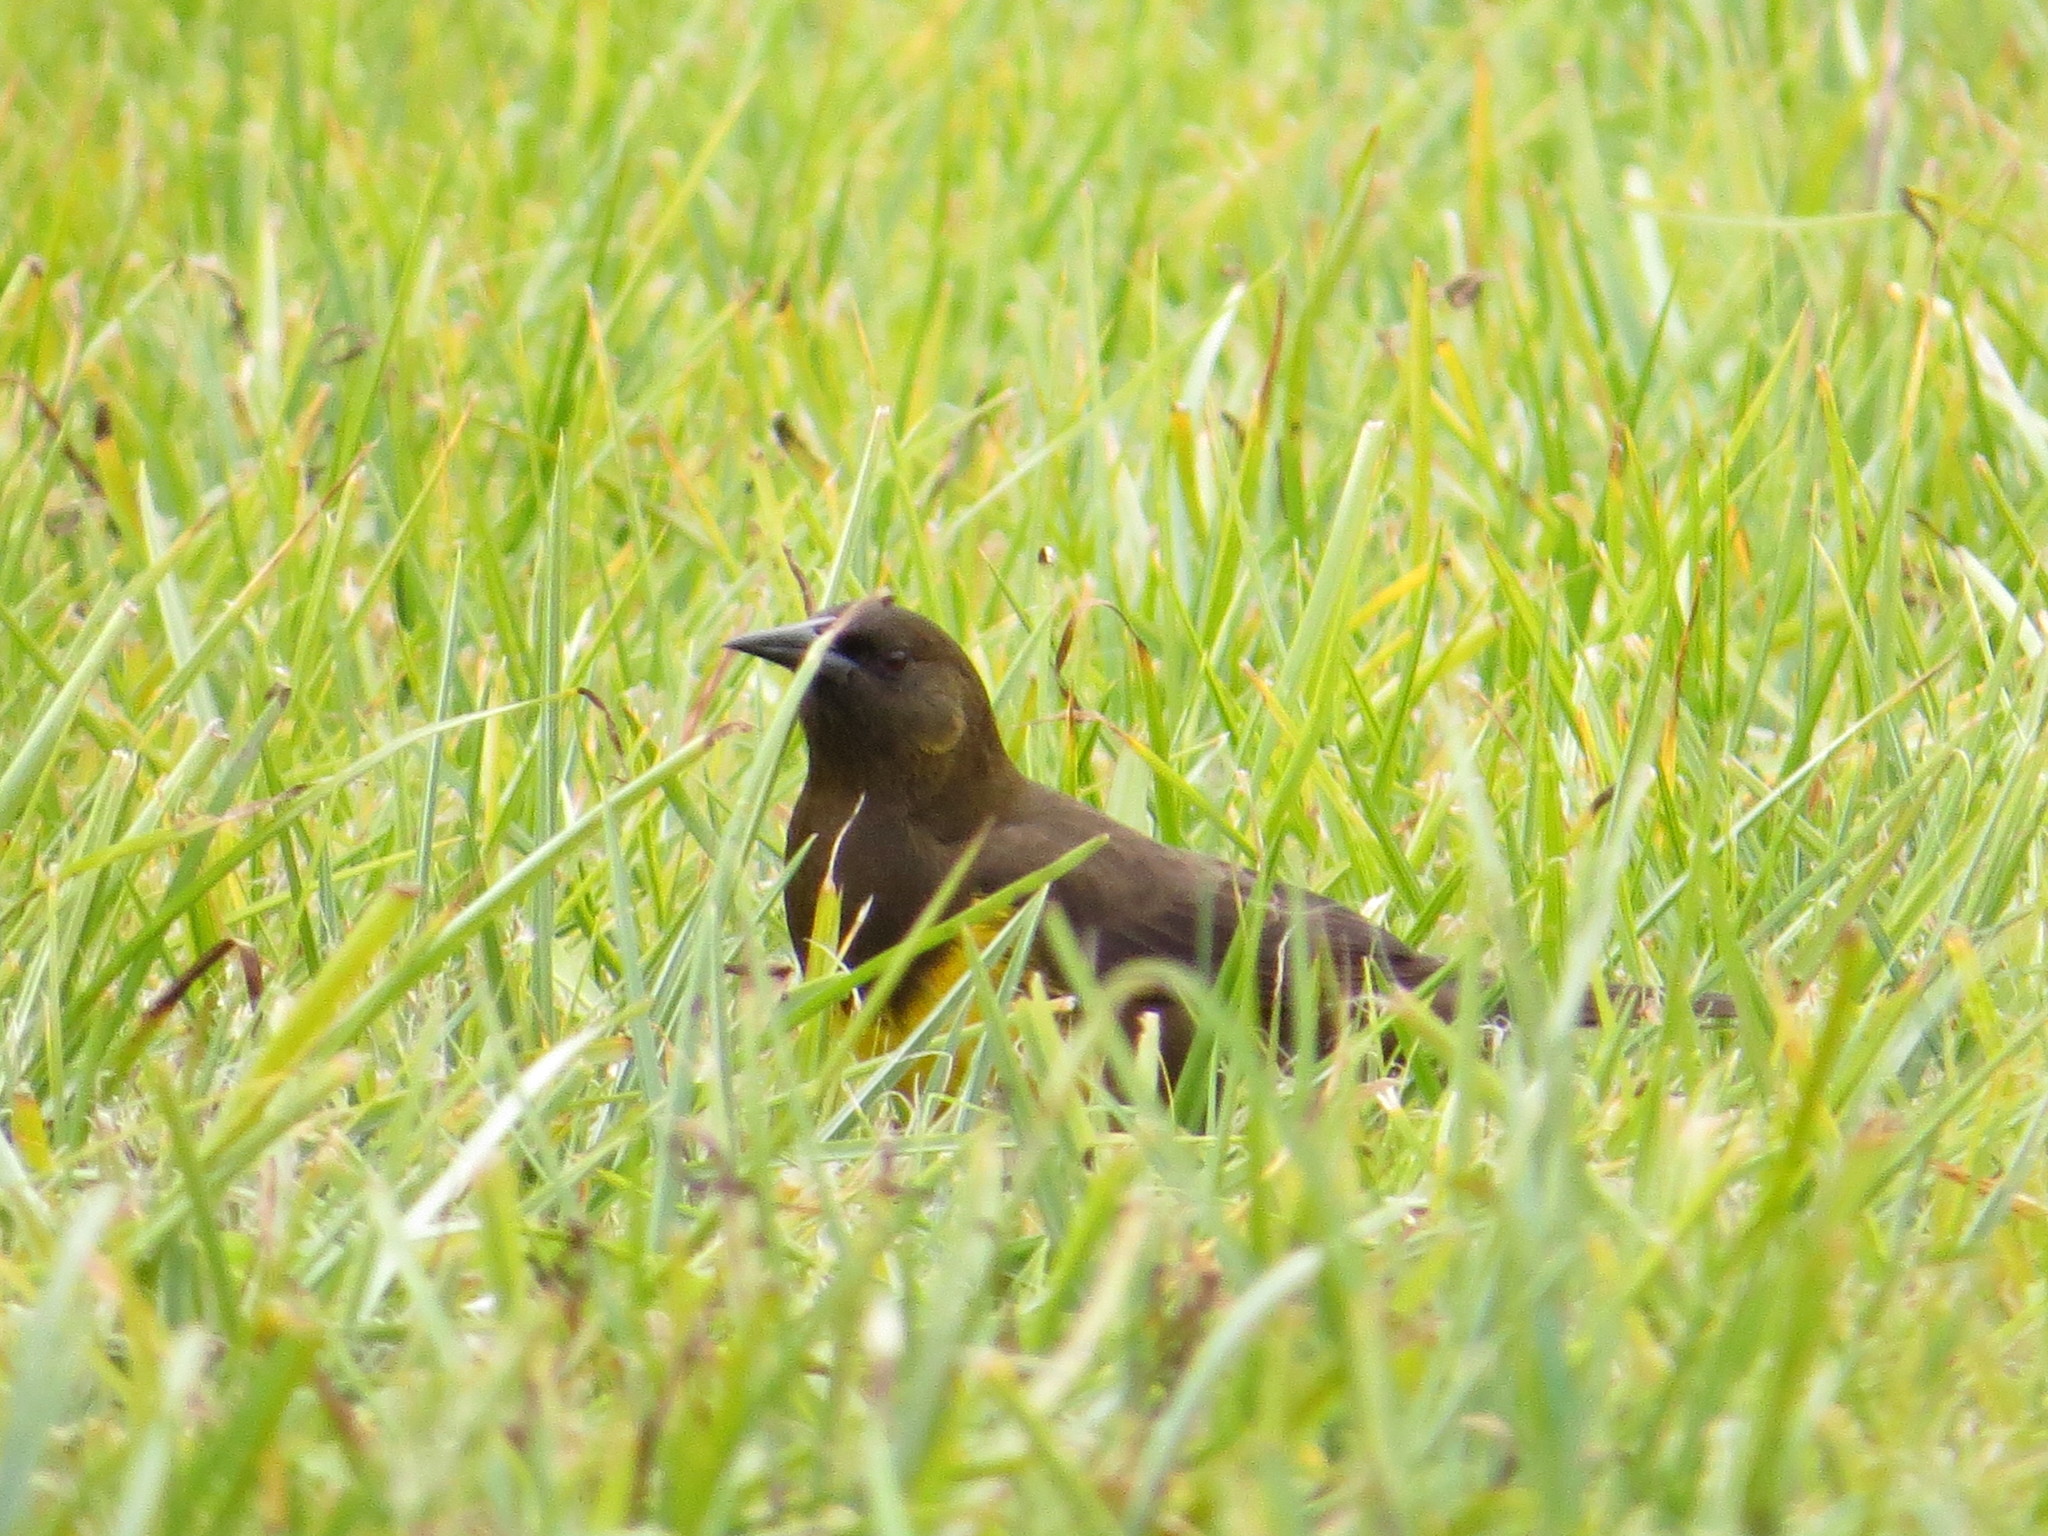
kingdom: Animalia
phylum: Chordata
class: Aves
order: Passeriformes
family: Icteridae
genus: Pseudoleistes
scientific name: Pseudoleistes virescens
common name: Brown-and-yellow marshbird
